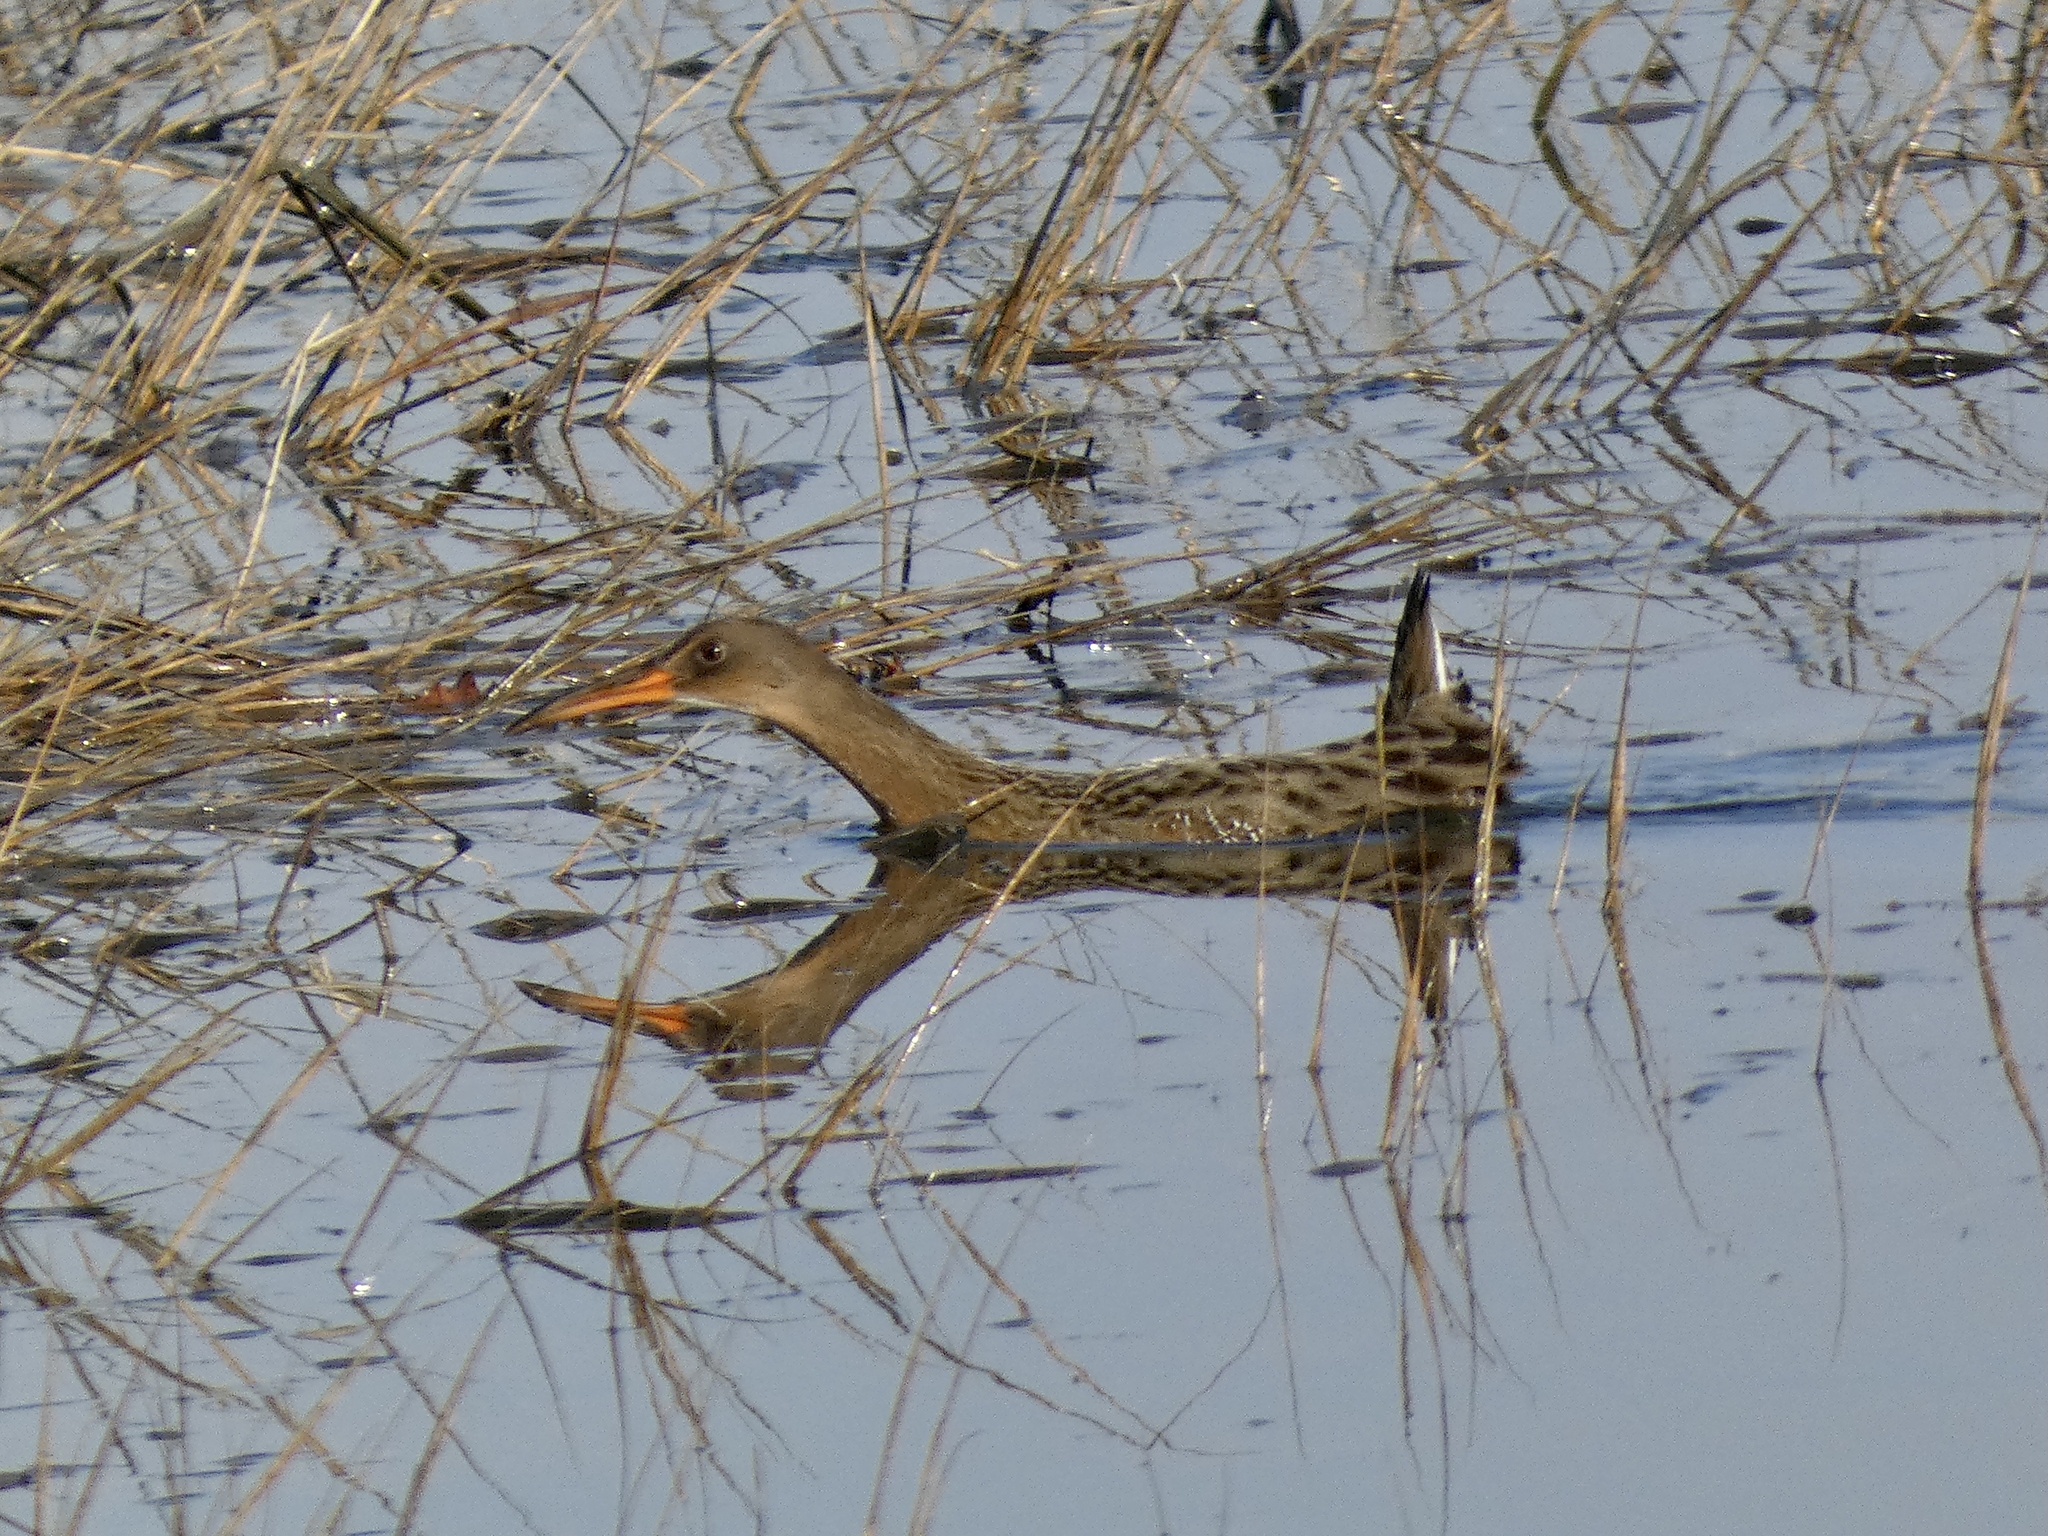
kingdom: Animalia
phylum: Chordata
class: Aves
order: Gruiformes
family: Rallidae
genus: Rallus
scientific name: Rallus obsoletus
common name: Ridgway's rail
